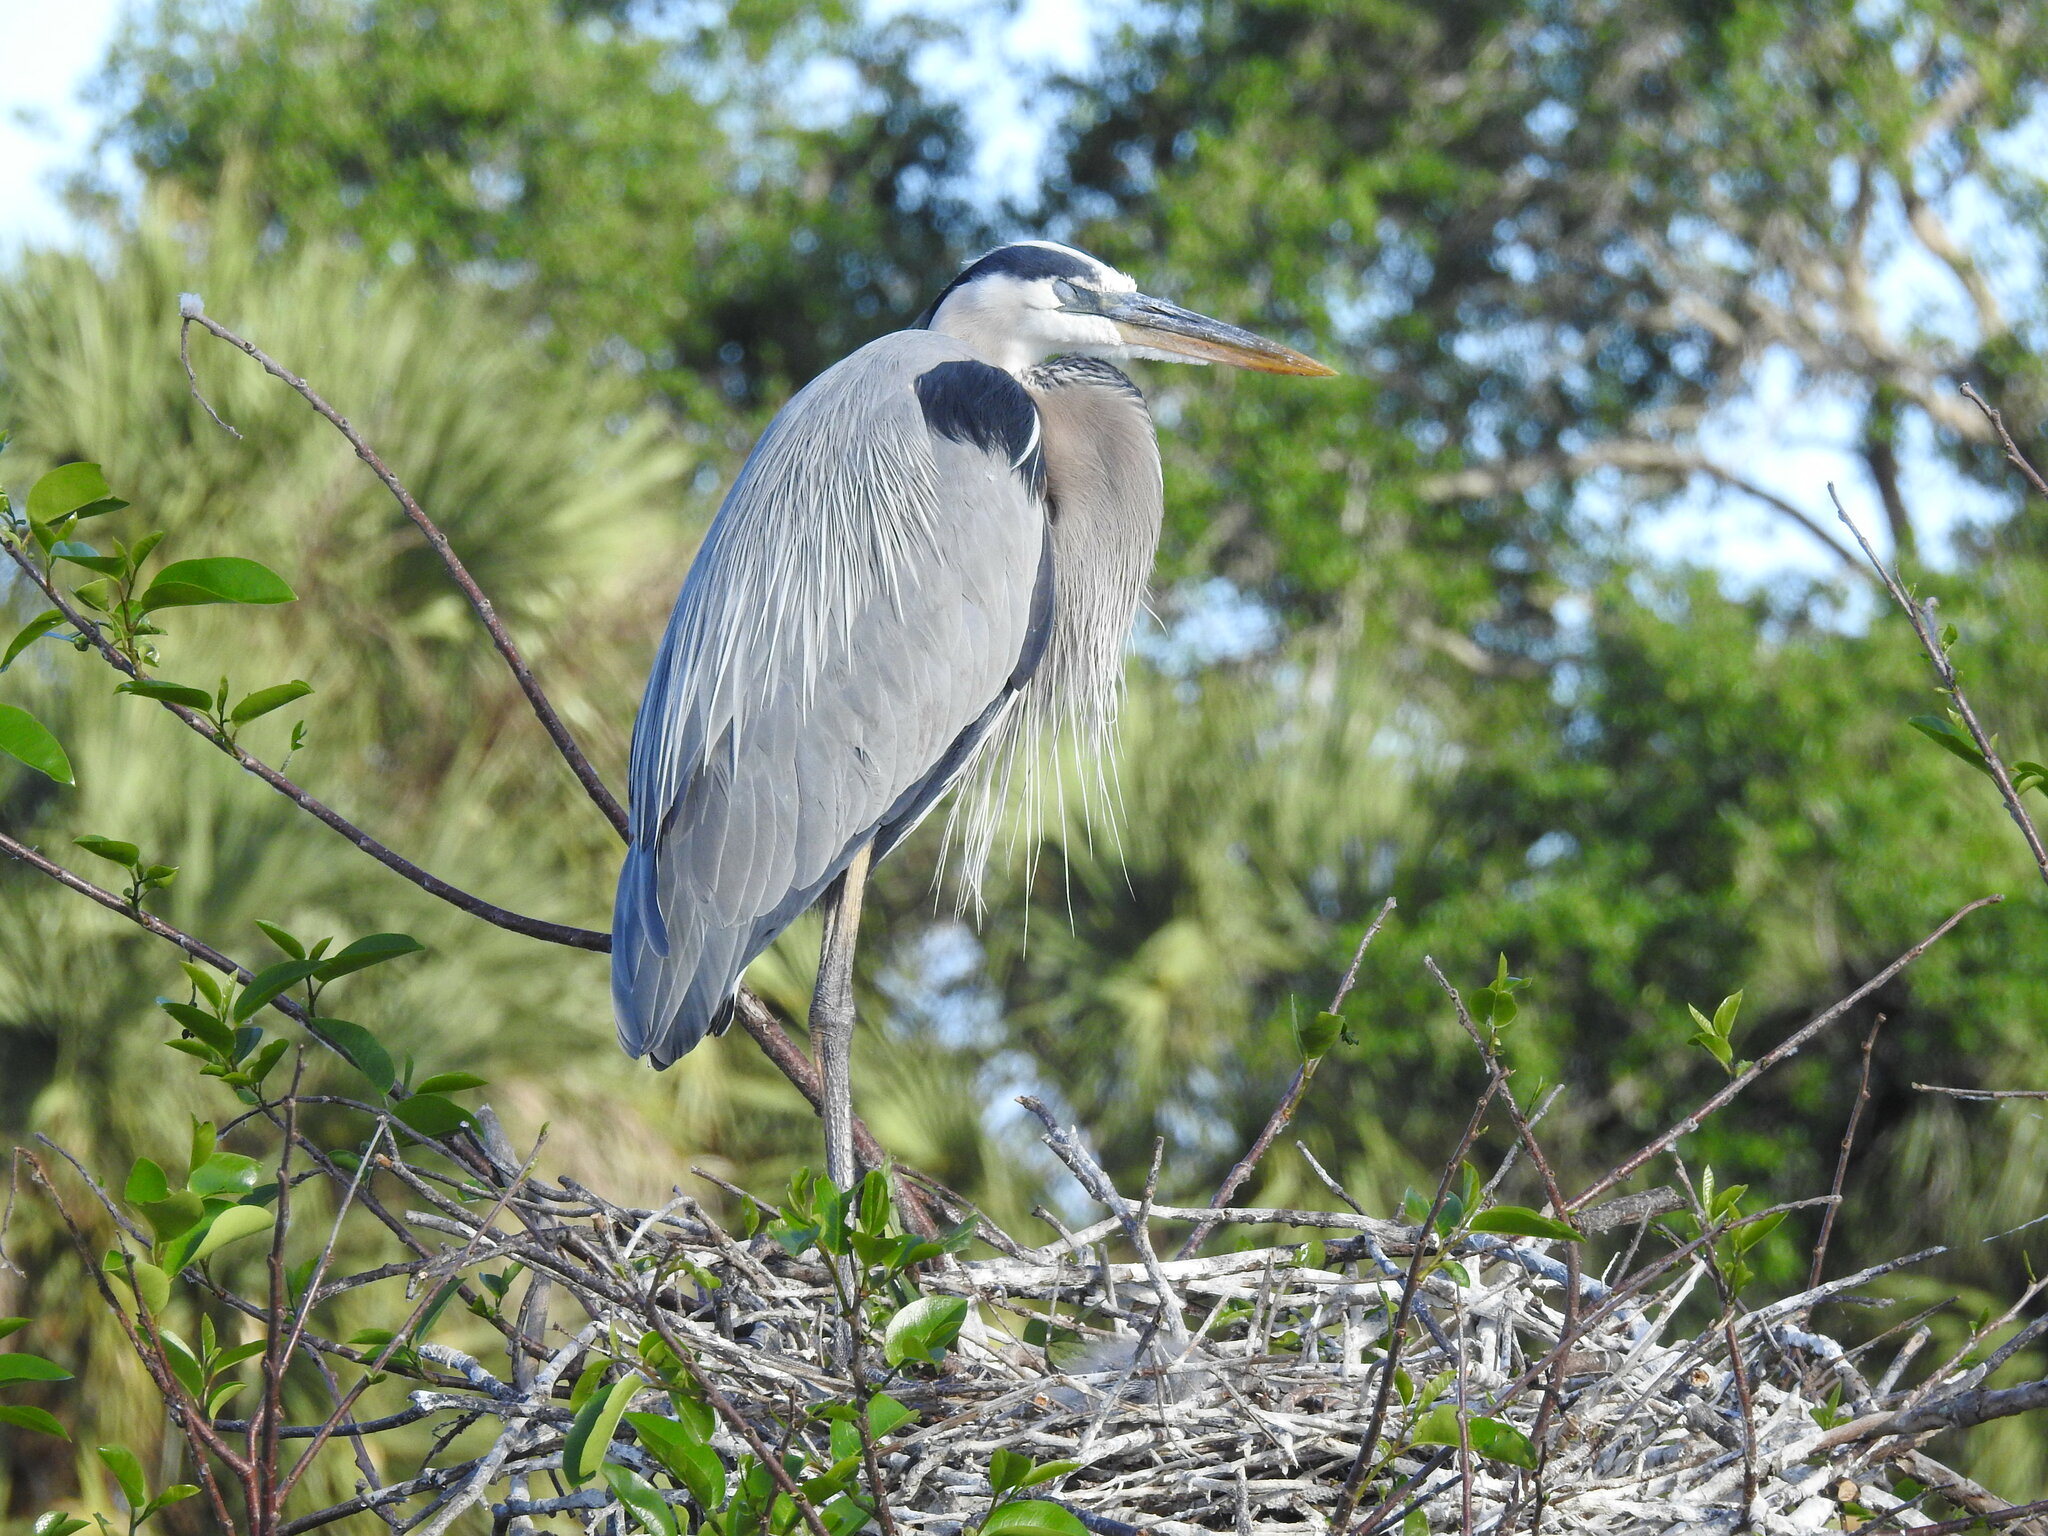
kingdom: Animalia
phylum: Chordata
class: Aves
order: Pelecaniformes
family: Ardeidae
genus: Ardea
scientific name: Ardea herodias
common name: Great blue heron
